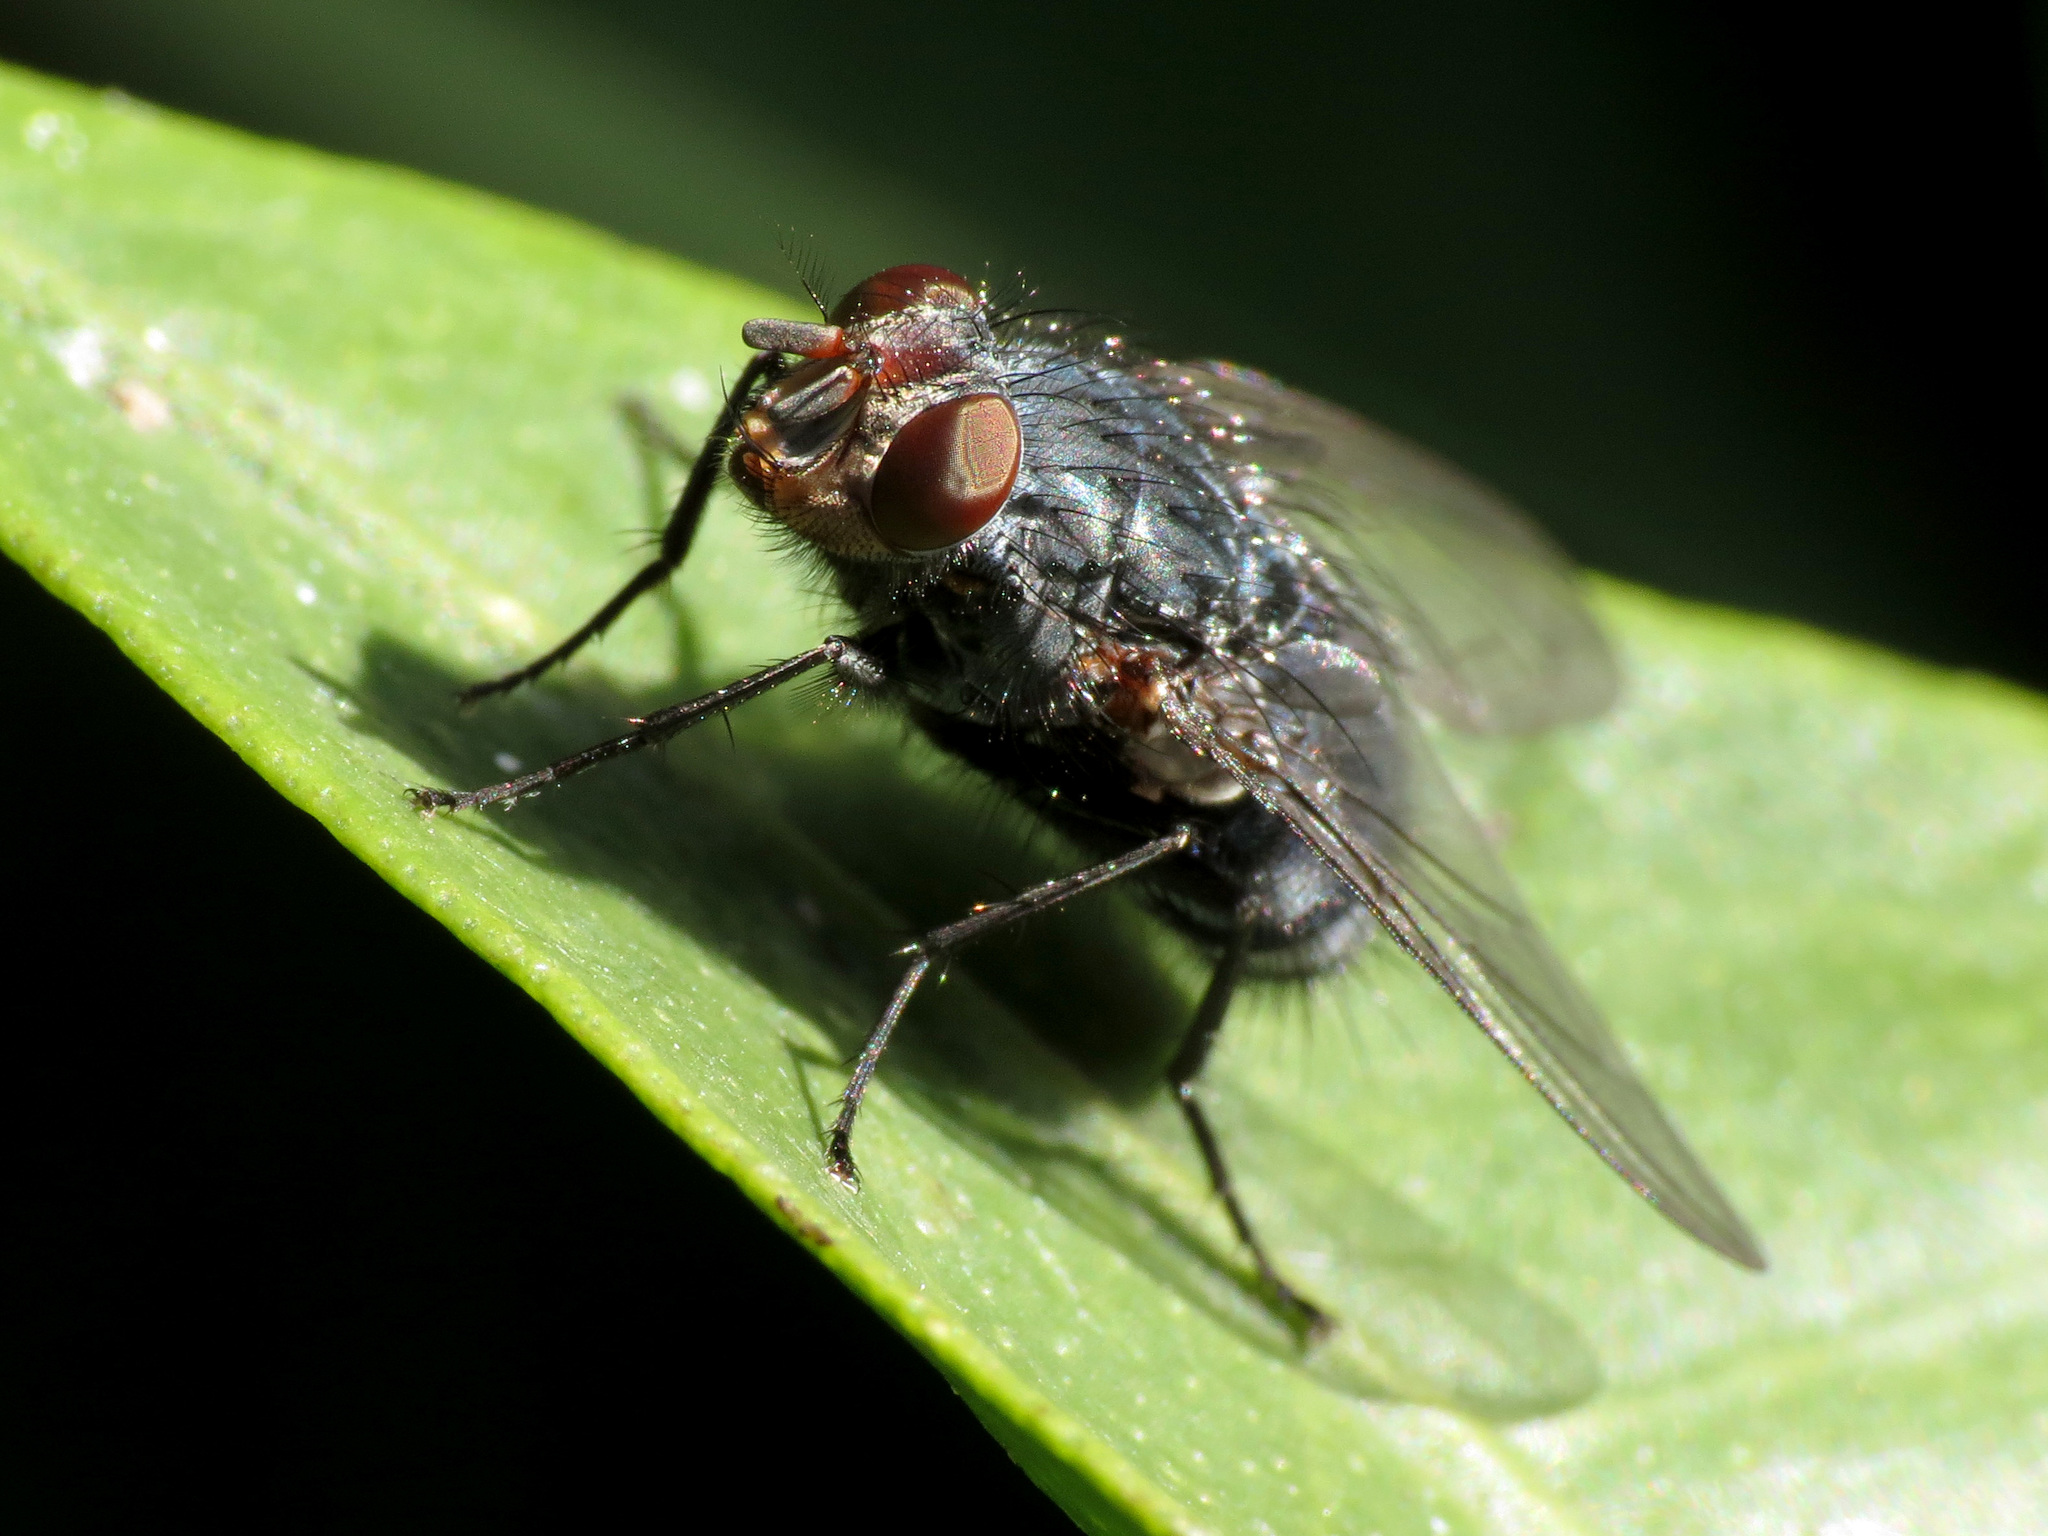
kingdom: Animalia
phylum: Arthropoda
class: Insecta
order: Diptera
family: Calliphoridae
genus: Calliphora
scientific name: Calliphora vicina
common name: Common blow flie
